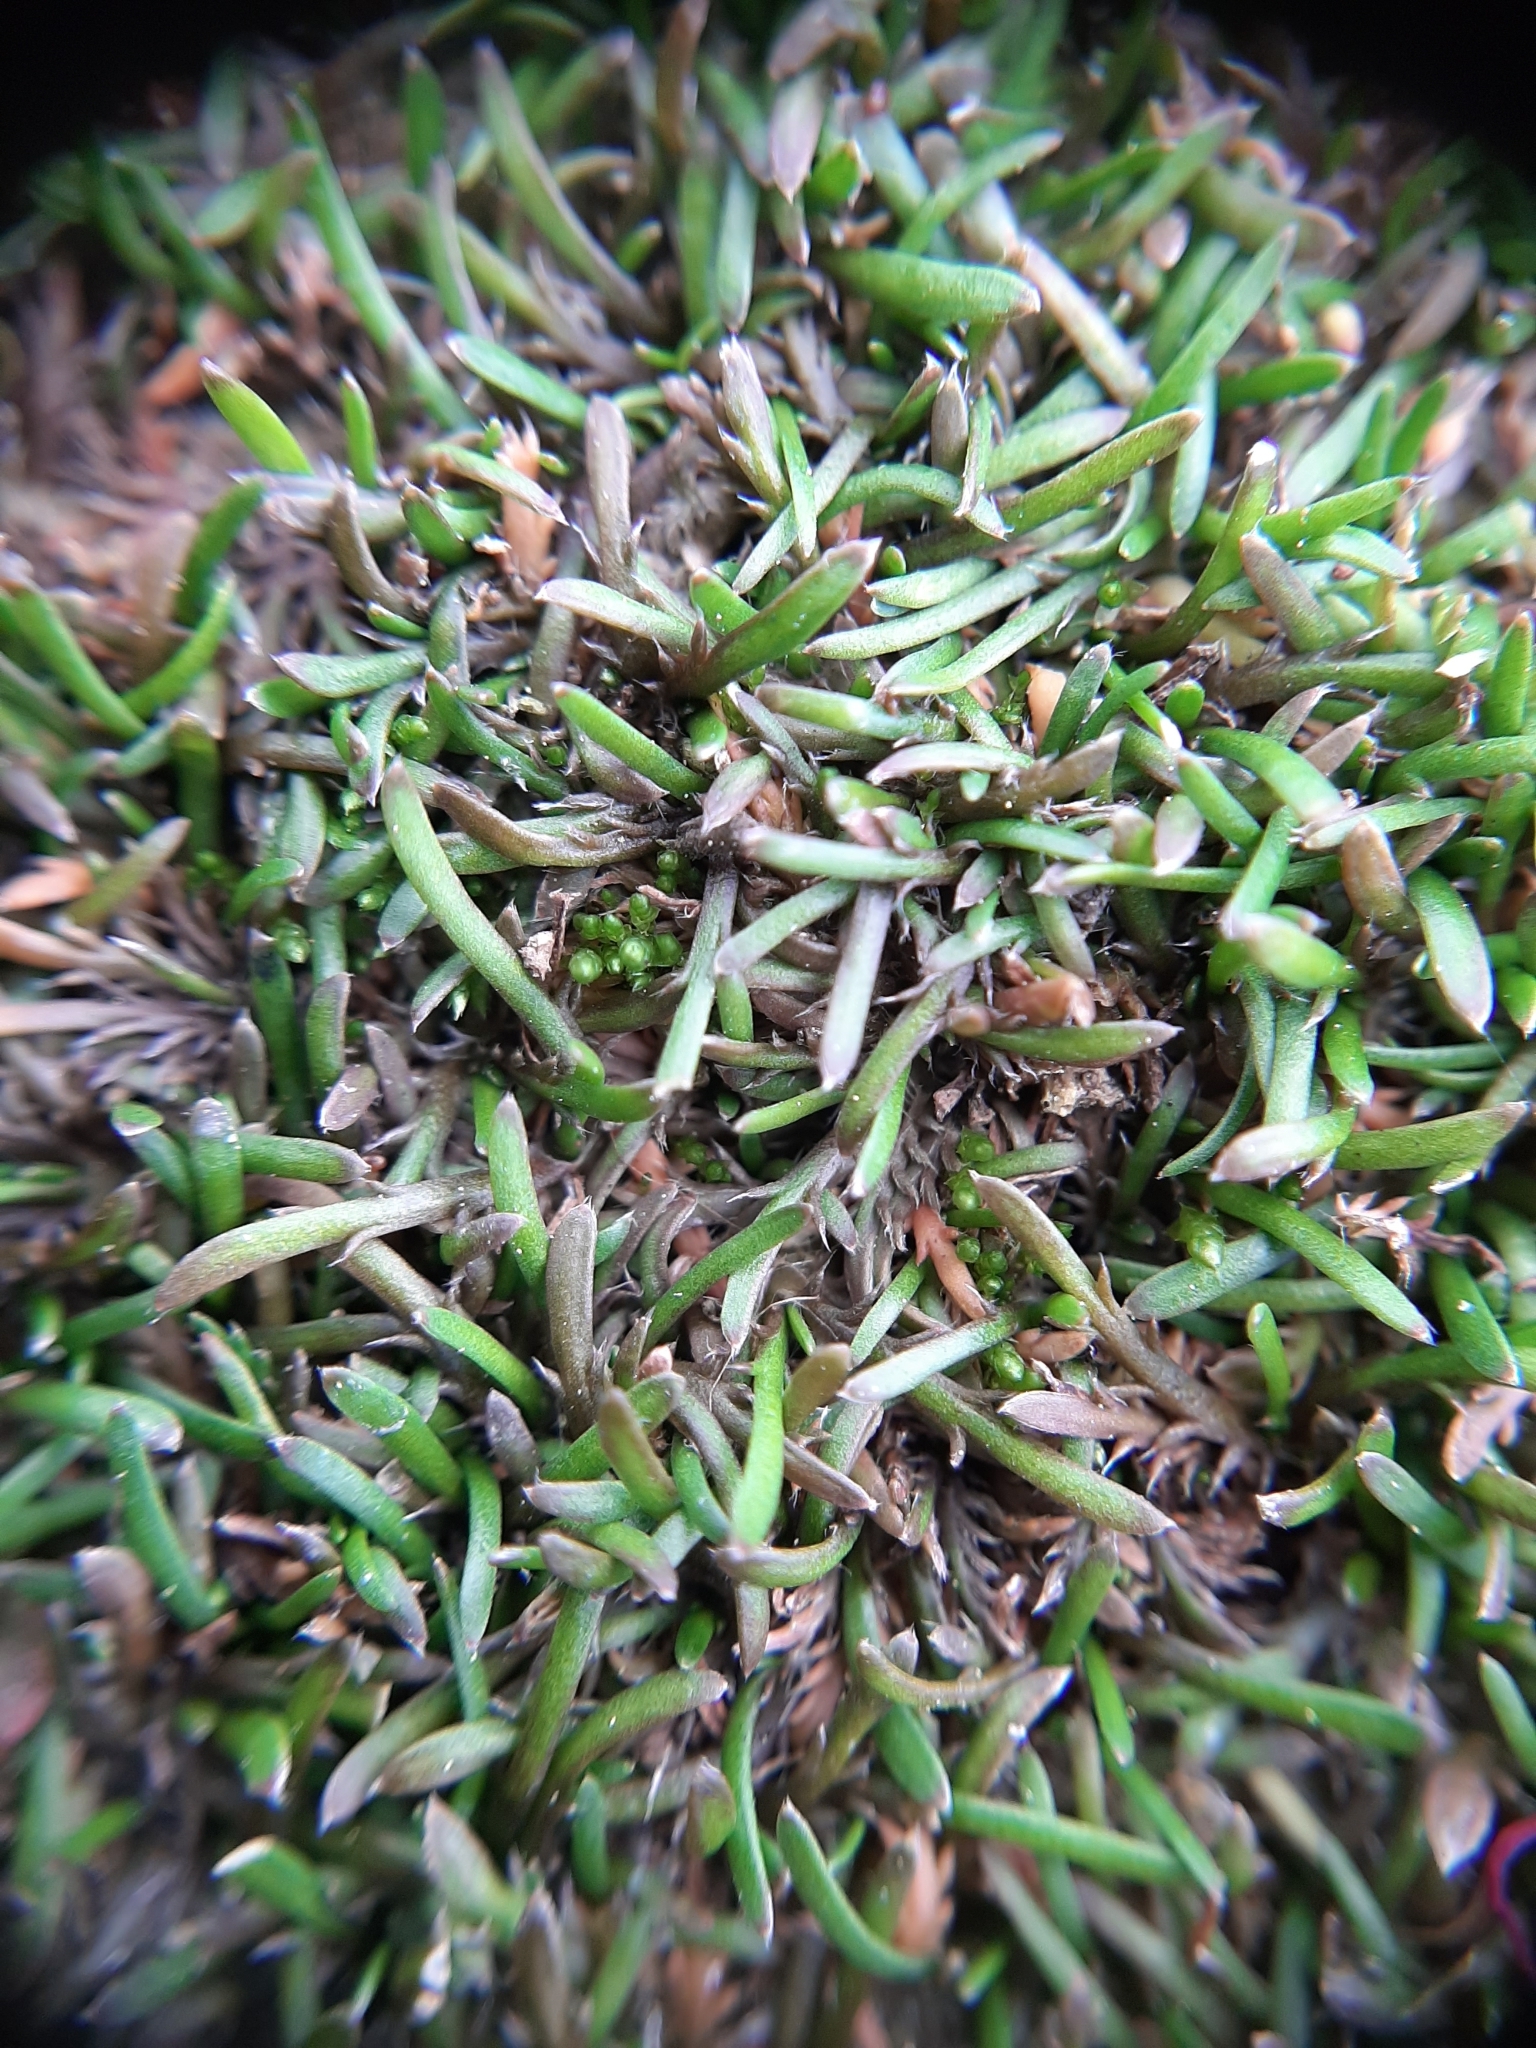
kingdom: Plantae
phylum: Tracheophyta
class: Magnoliopsida
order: Asterales
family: Asteraceae
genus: Leptinella
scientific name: Leptinella maniototo
